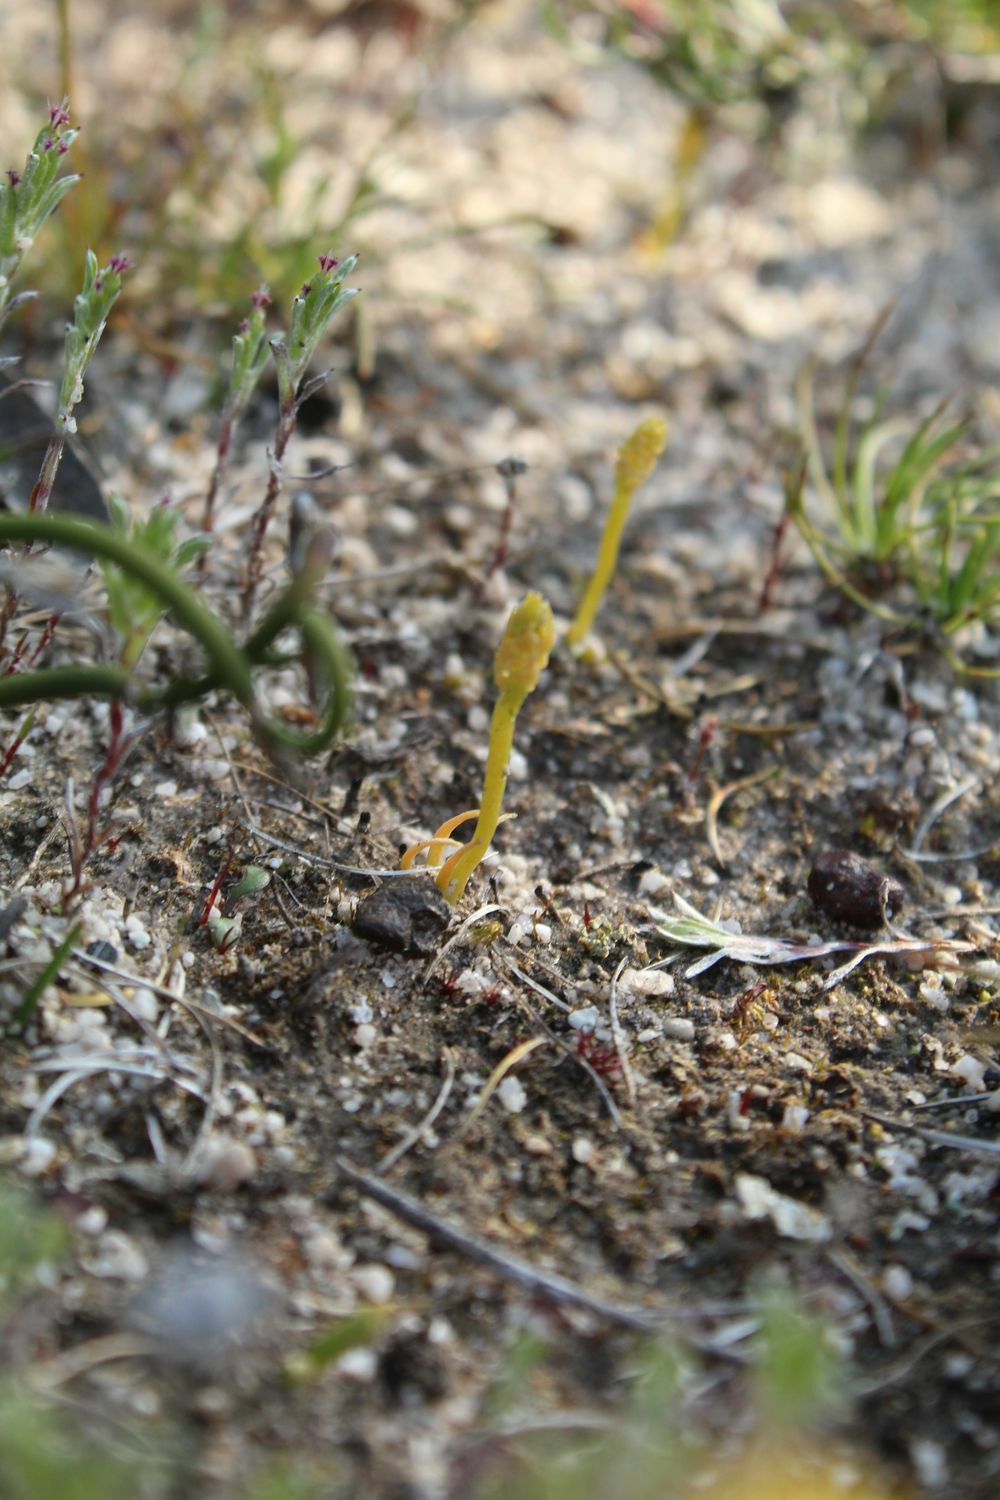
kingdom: Plantae
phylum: Tracheophyta
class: Lycopodiopsida
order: Lycopodiales
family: Lycopodiaceae
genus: Phylloglossum
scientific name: Phylloglossum drummondii
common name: Pigmy-club-moss
